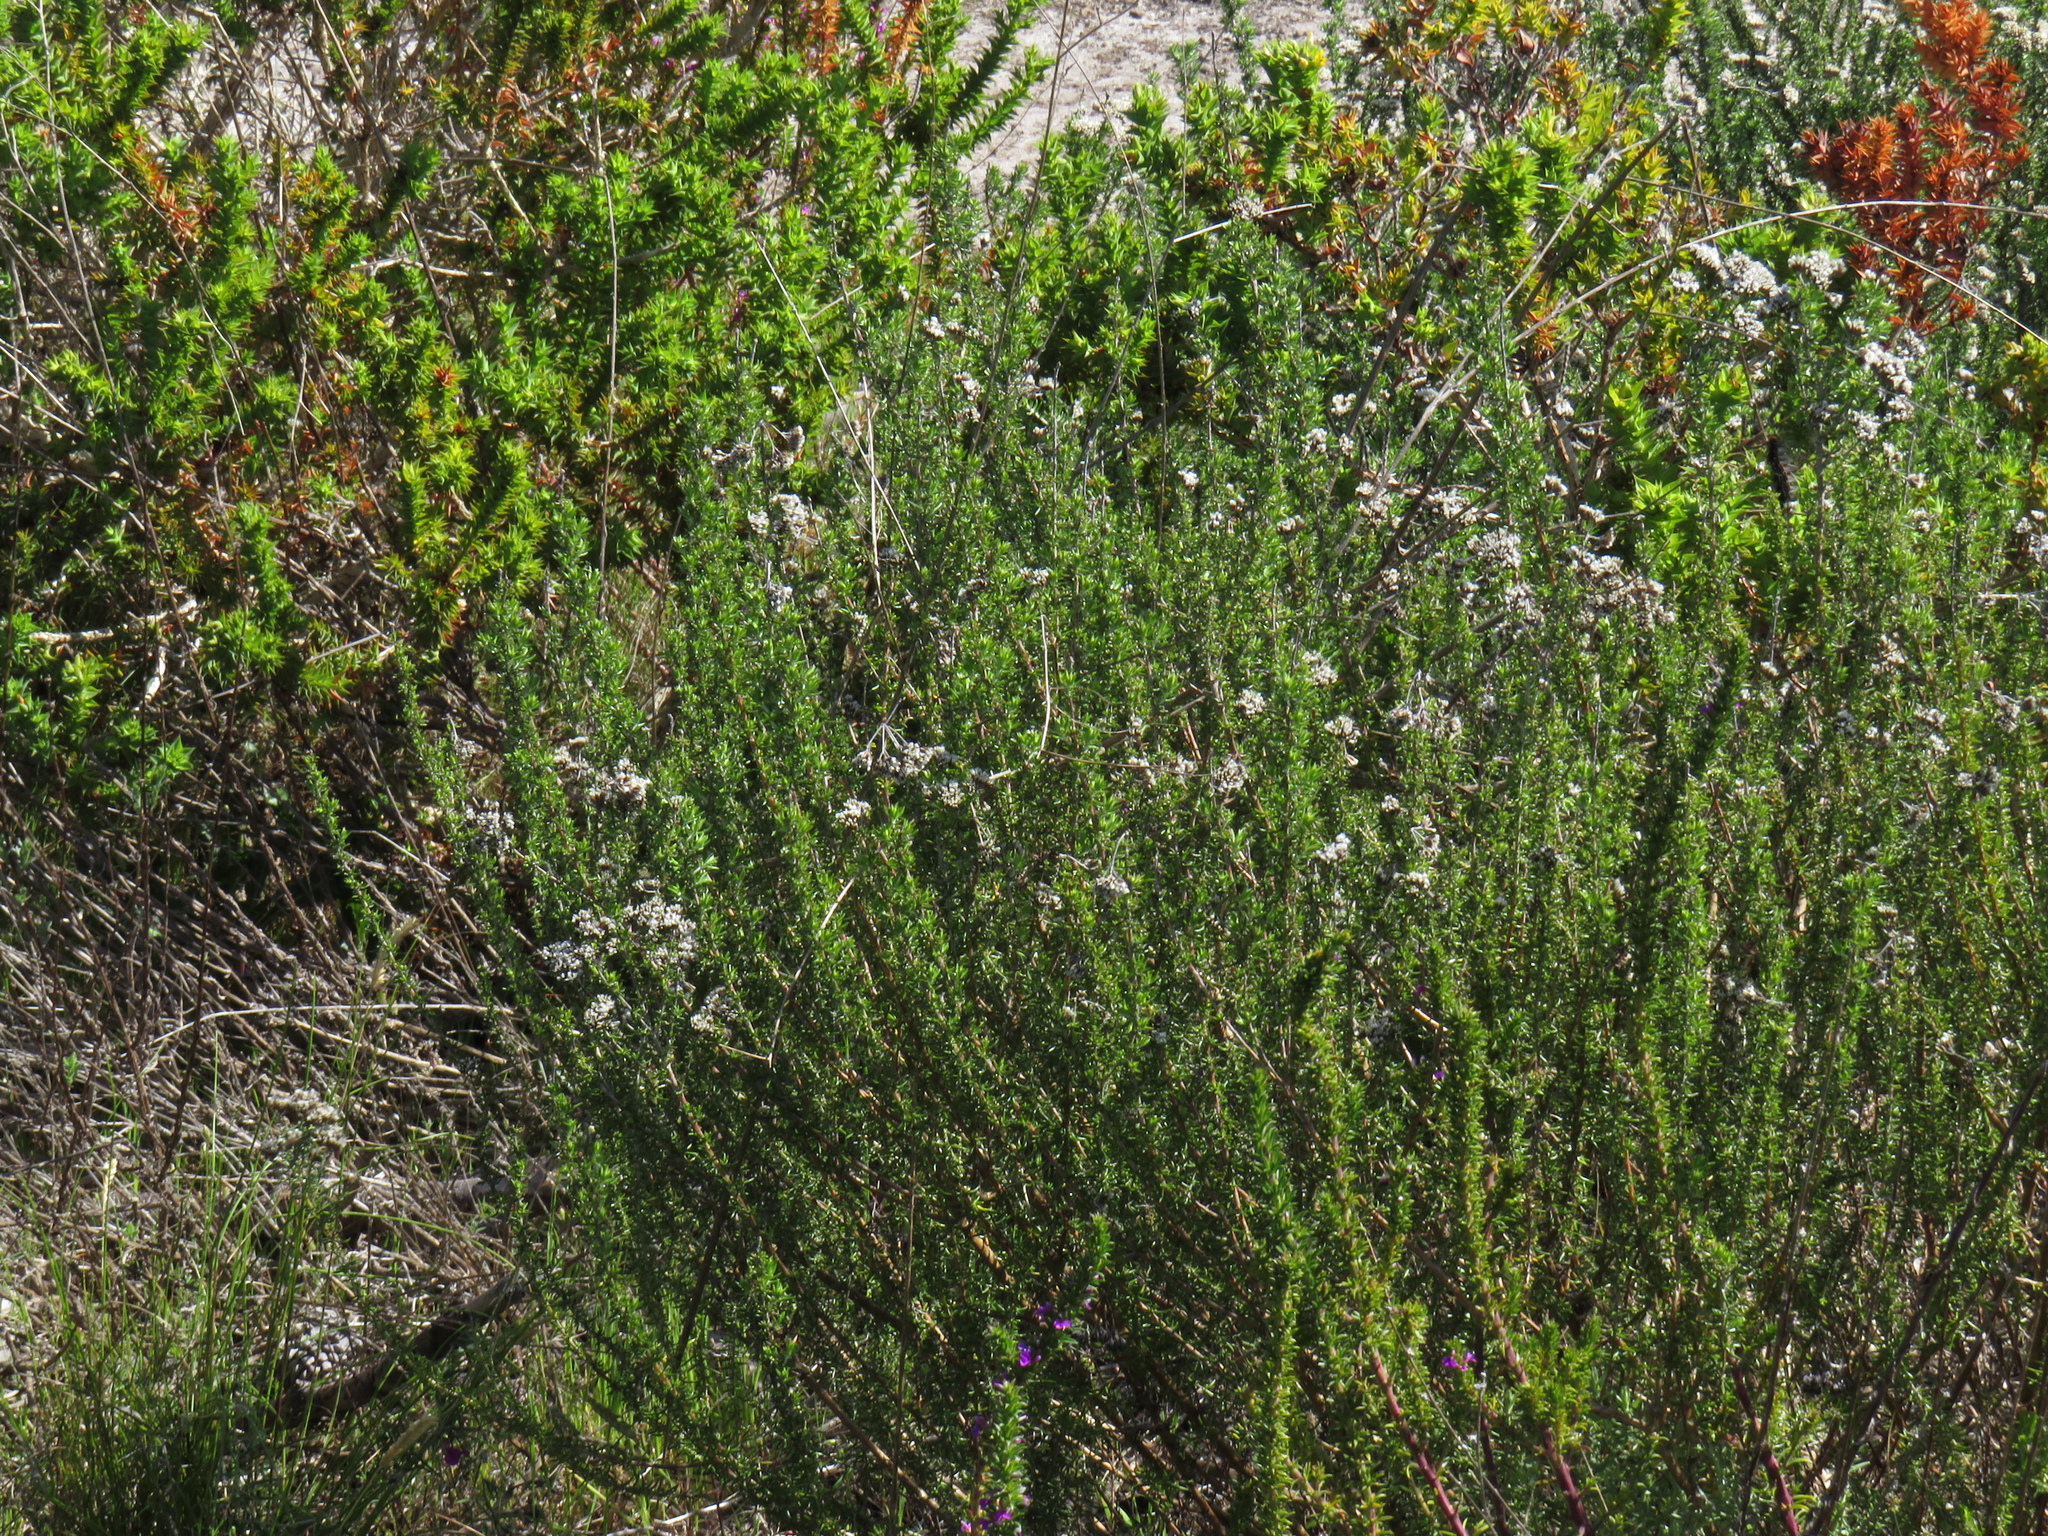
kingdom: Plantae
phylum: Tracheophyta
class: Magnoliopsida
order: Asterales
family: Asteraceae
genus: Metalasia
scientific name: Metalasia densa
